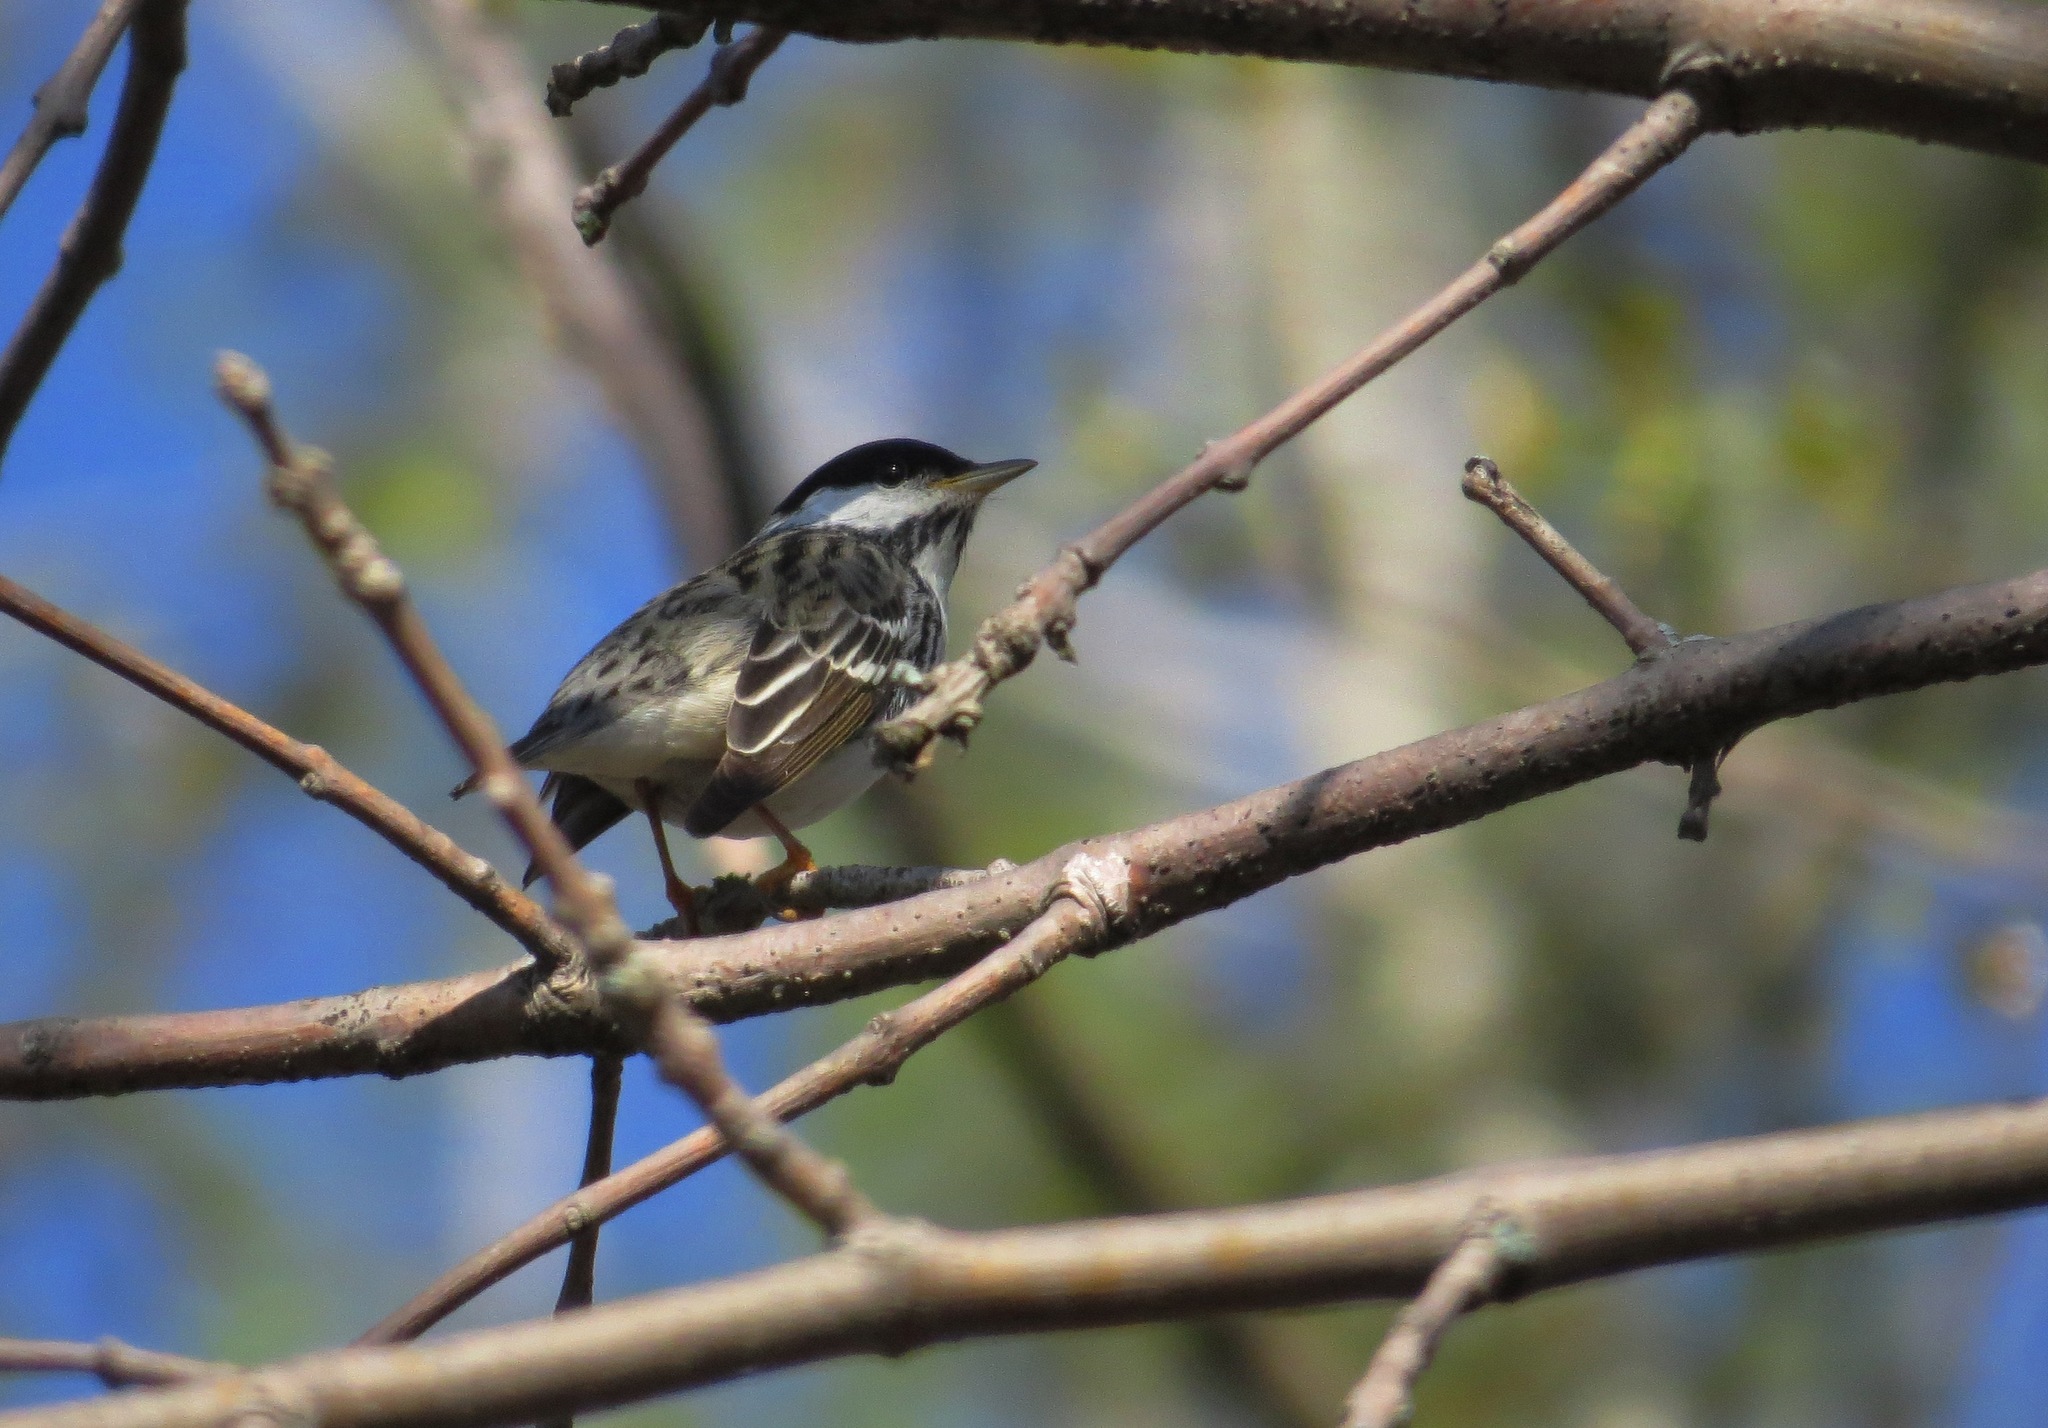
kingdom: Animalia
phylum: Chordata
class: Aves
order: Passeriformes
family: Parulidae
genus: Setophaga
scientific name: Setophaga striata
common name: Blackpoll warbler
